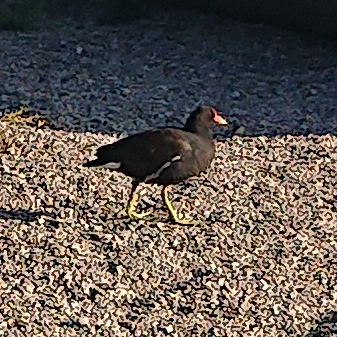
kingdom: Animalia
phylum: Chordata
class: Aves
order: Gruiformes
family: Rallidae
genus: Gallinula
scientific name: Gallinula chloropus
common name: Common moorhen
